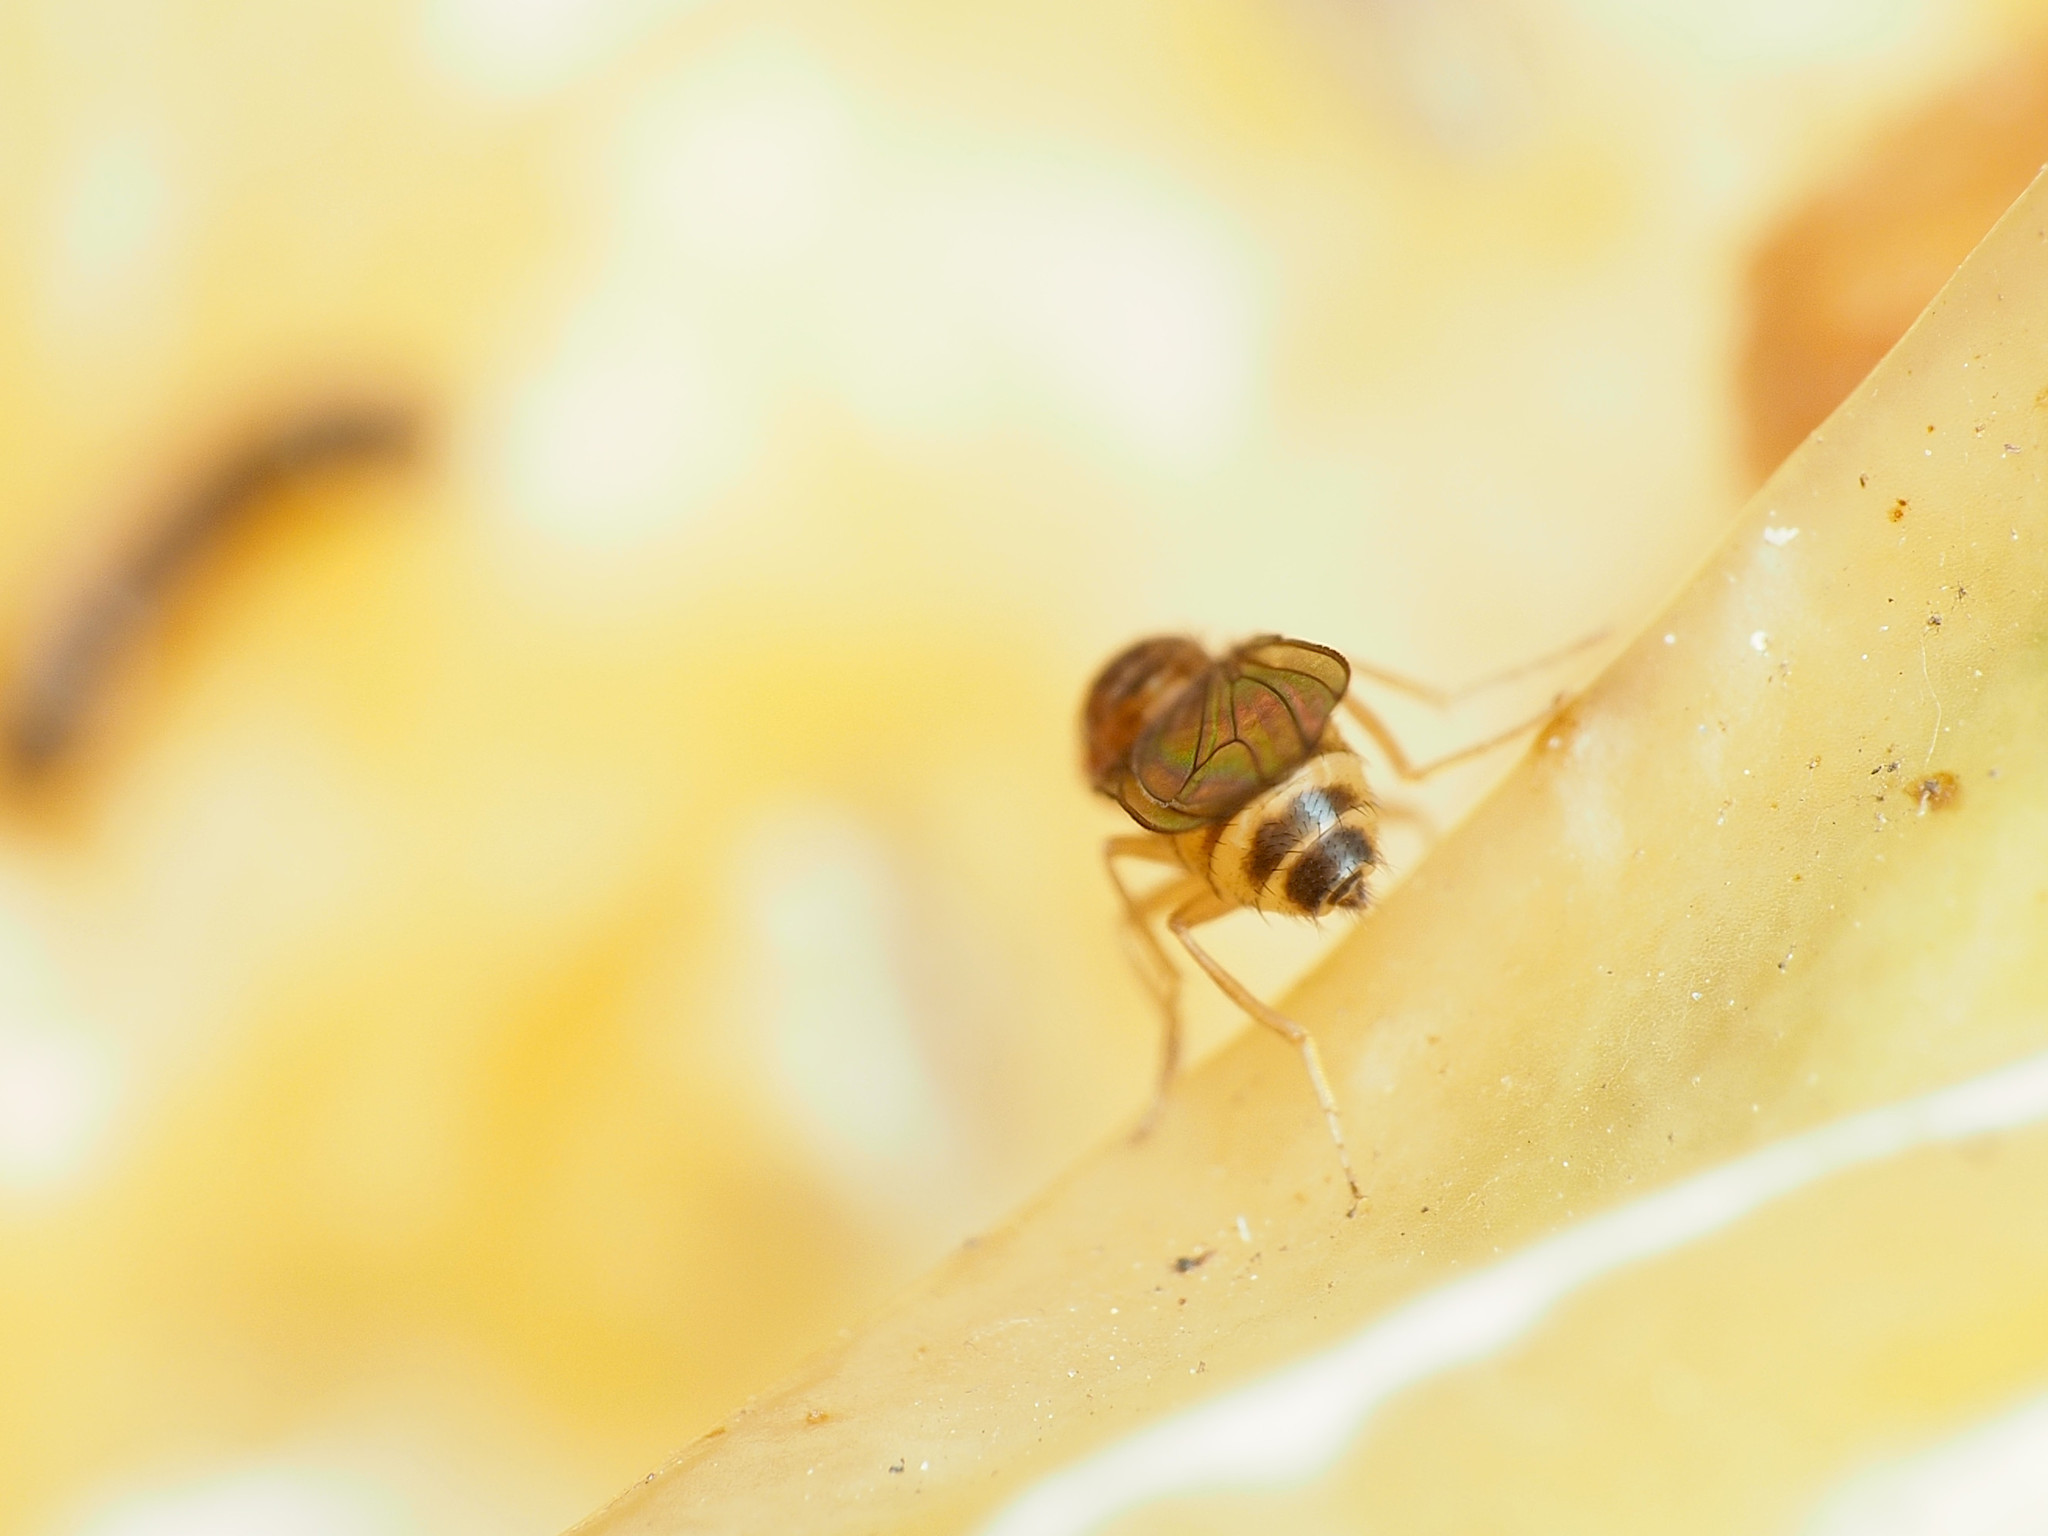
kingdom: Animalia
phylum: Arthropoda
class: Insecta
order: Diptera
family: Drosophilidae
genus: Drosophila
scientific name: Drosophila immigrans
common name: Pomace fly
